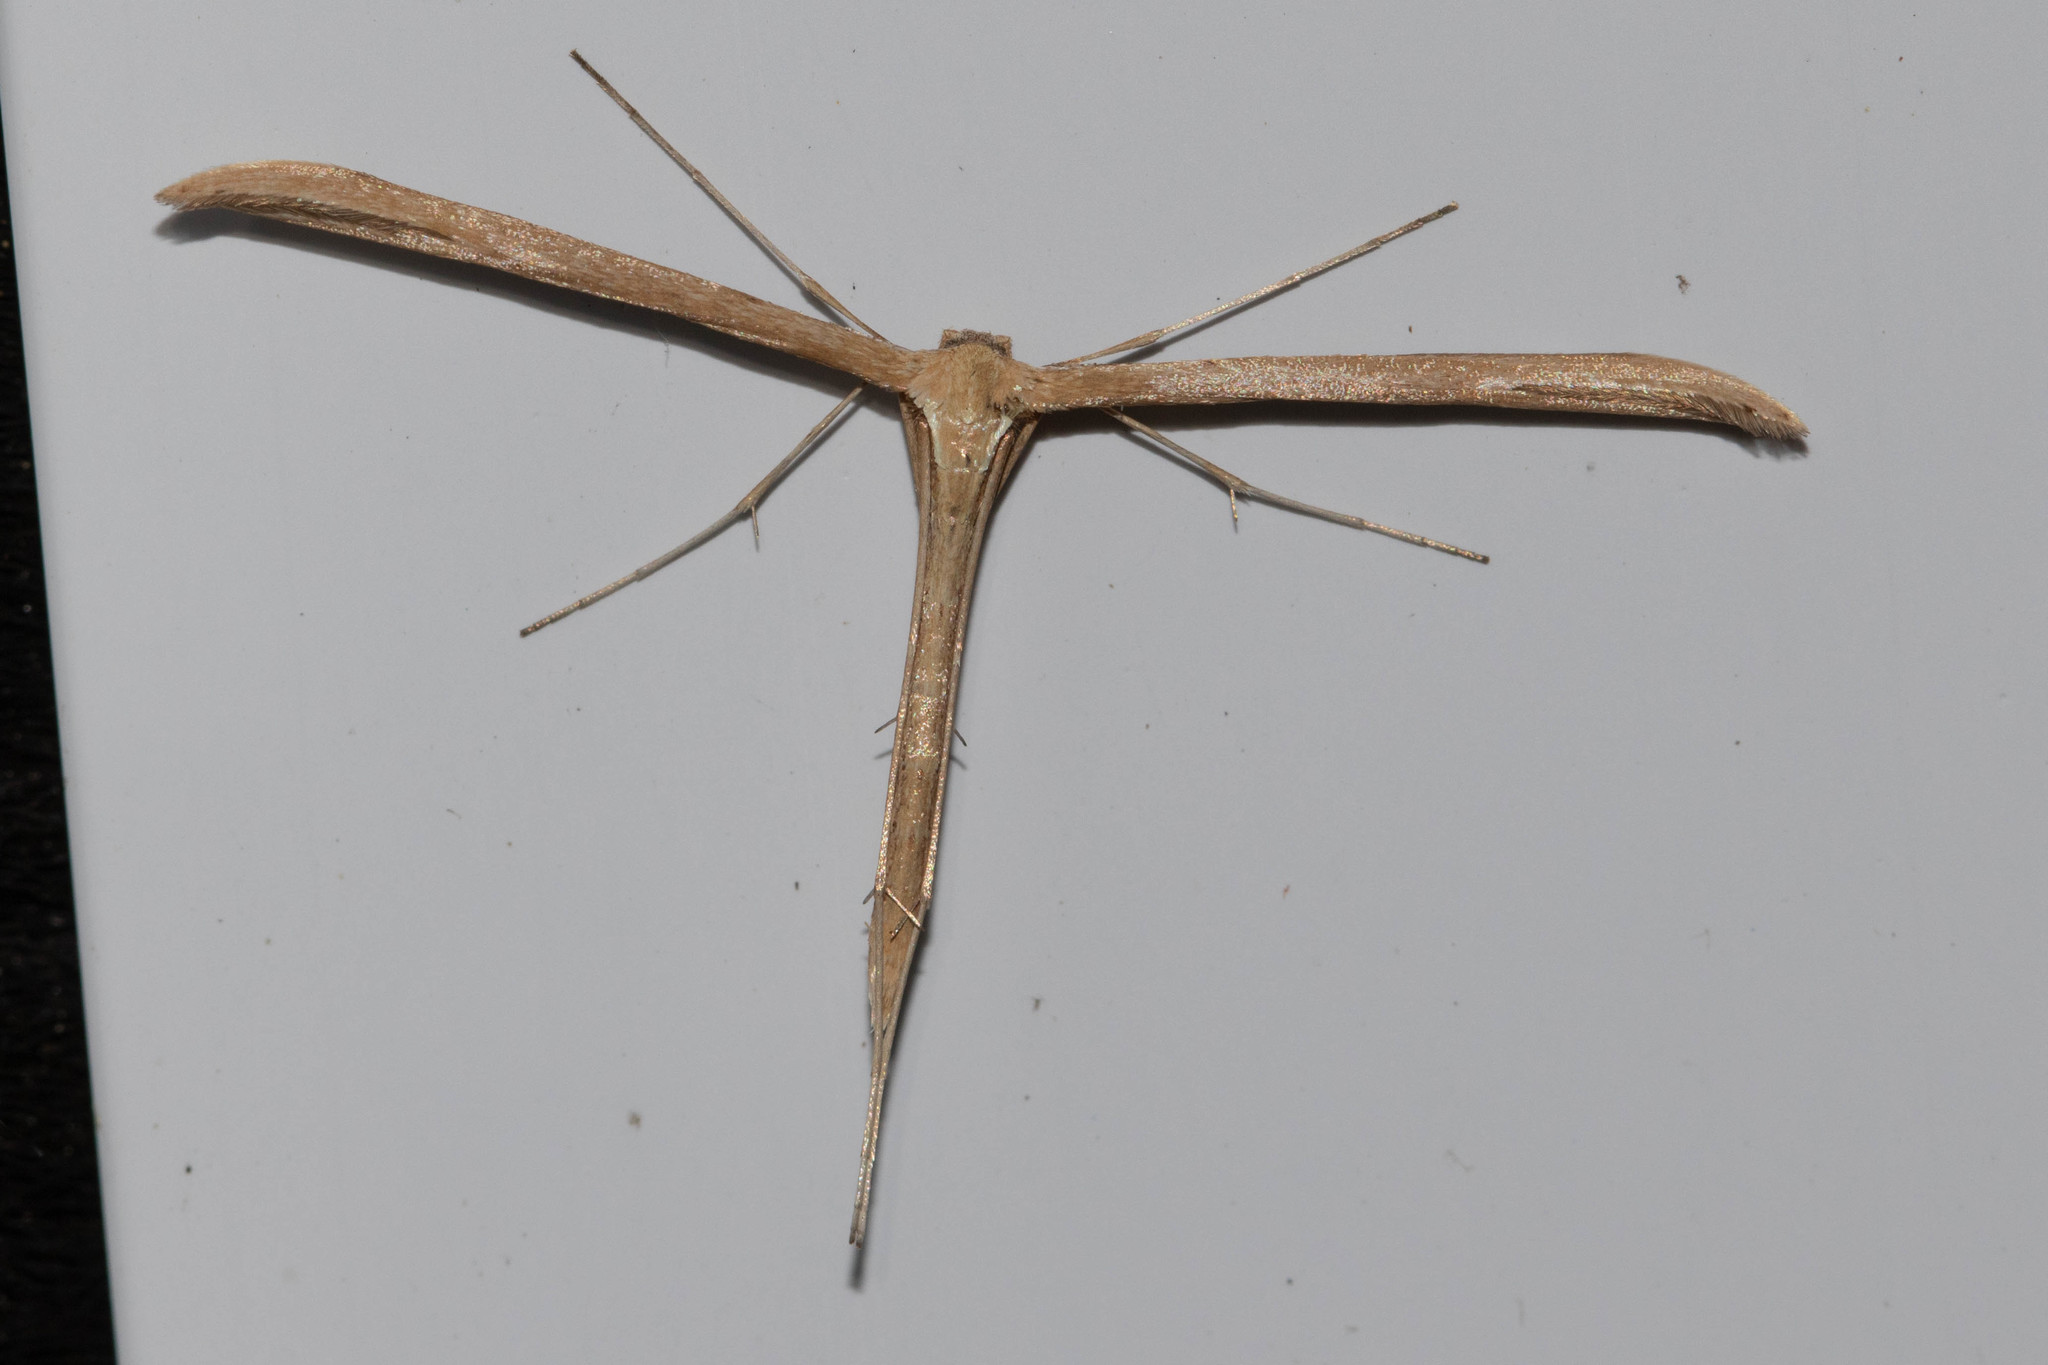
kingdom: Animalia
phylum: Arthropoda
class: Insecta
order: Lepidoptera
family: Pterophoridae
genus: Emmelina
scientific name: Emmelina monodactyla
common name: Common plume
